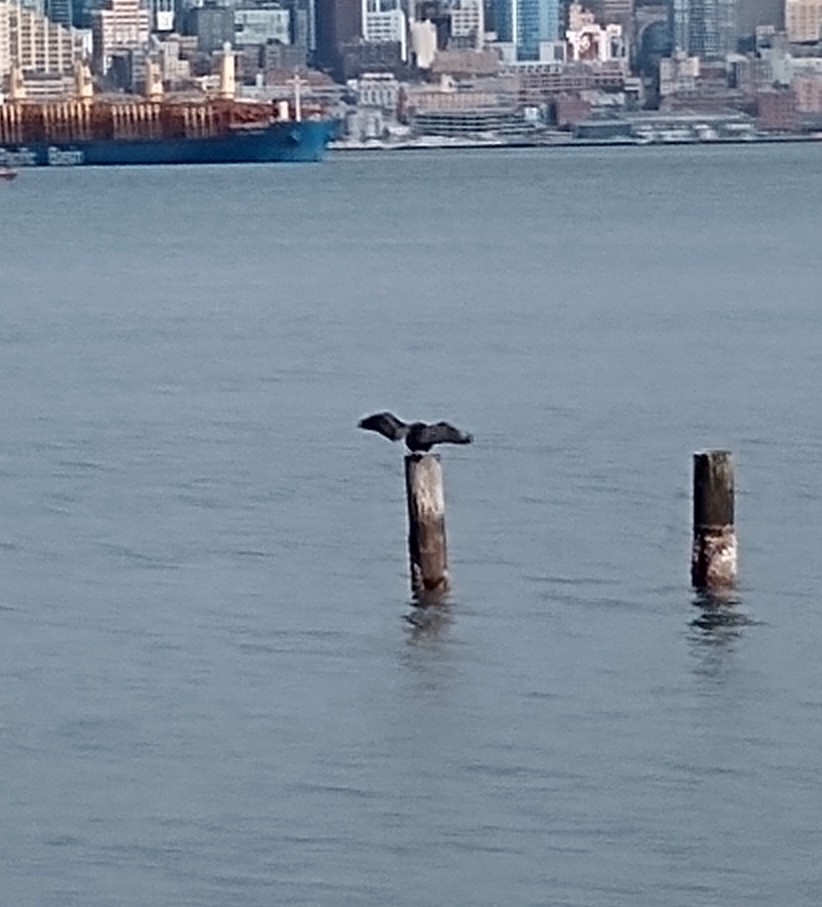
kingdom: Animalia
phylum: Chordata
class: Aves
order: Suliformes
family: Phalacrocoracidae
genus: Phalacrocorax
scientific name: Phalacrocorax auritus
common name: Double-crested cormorant
